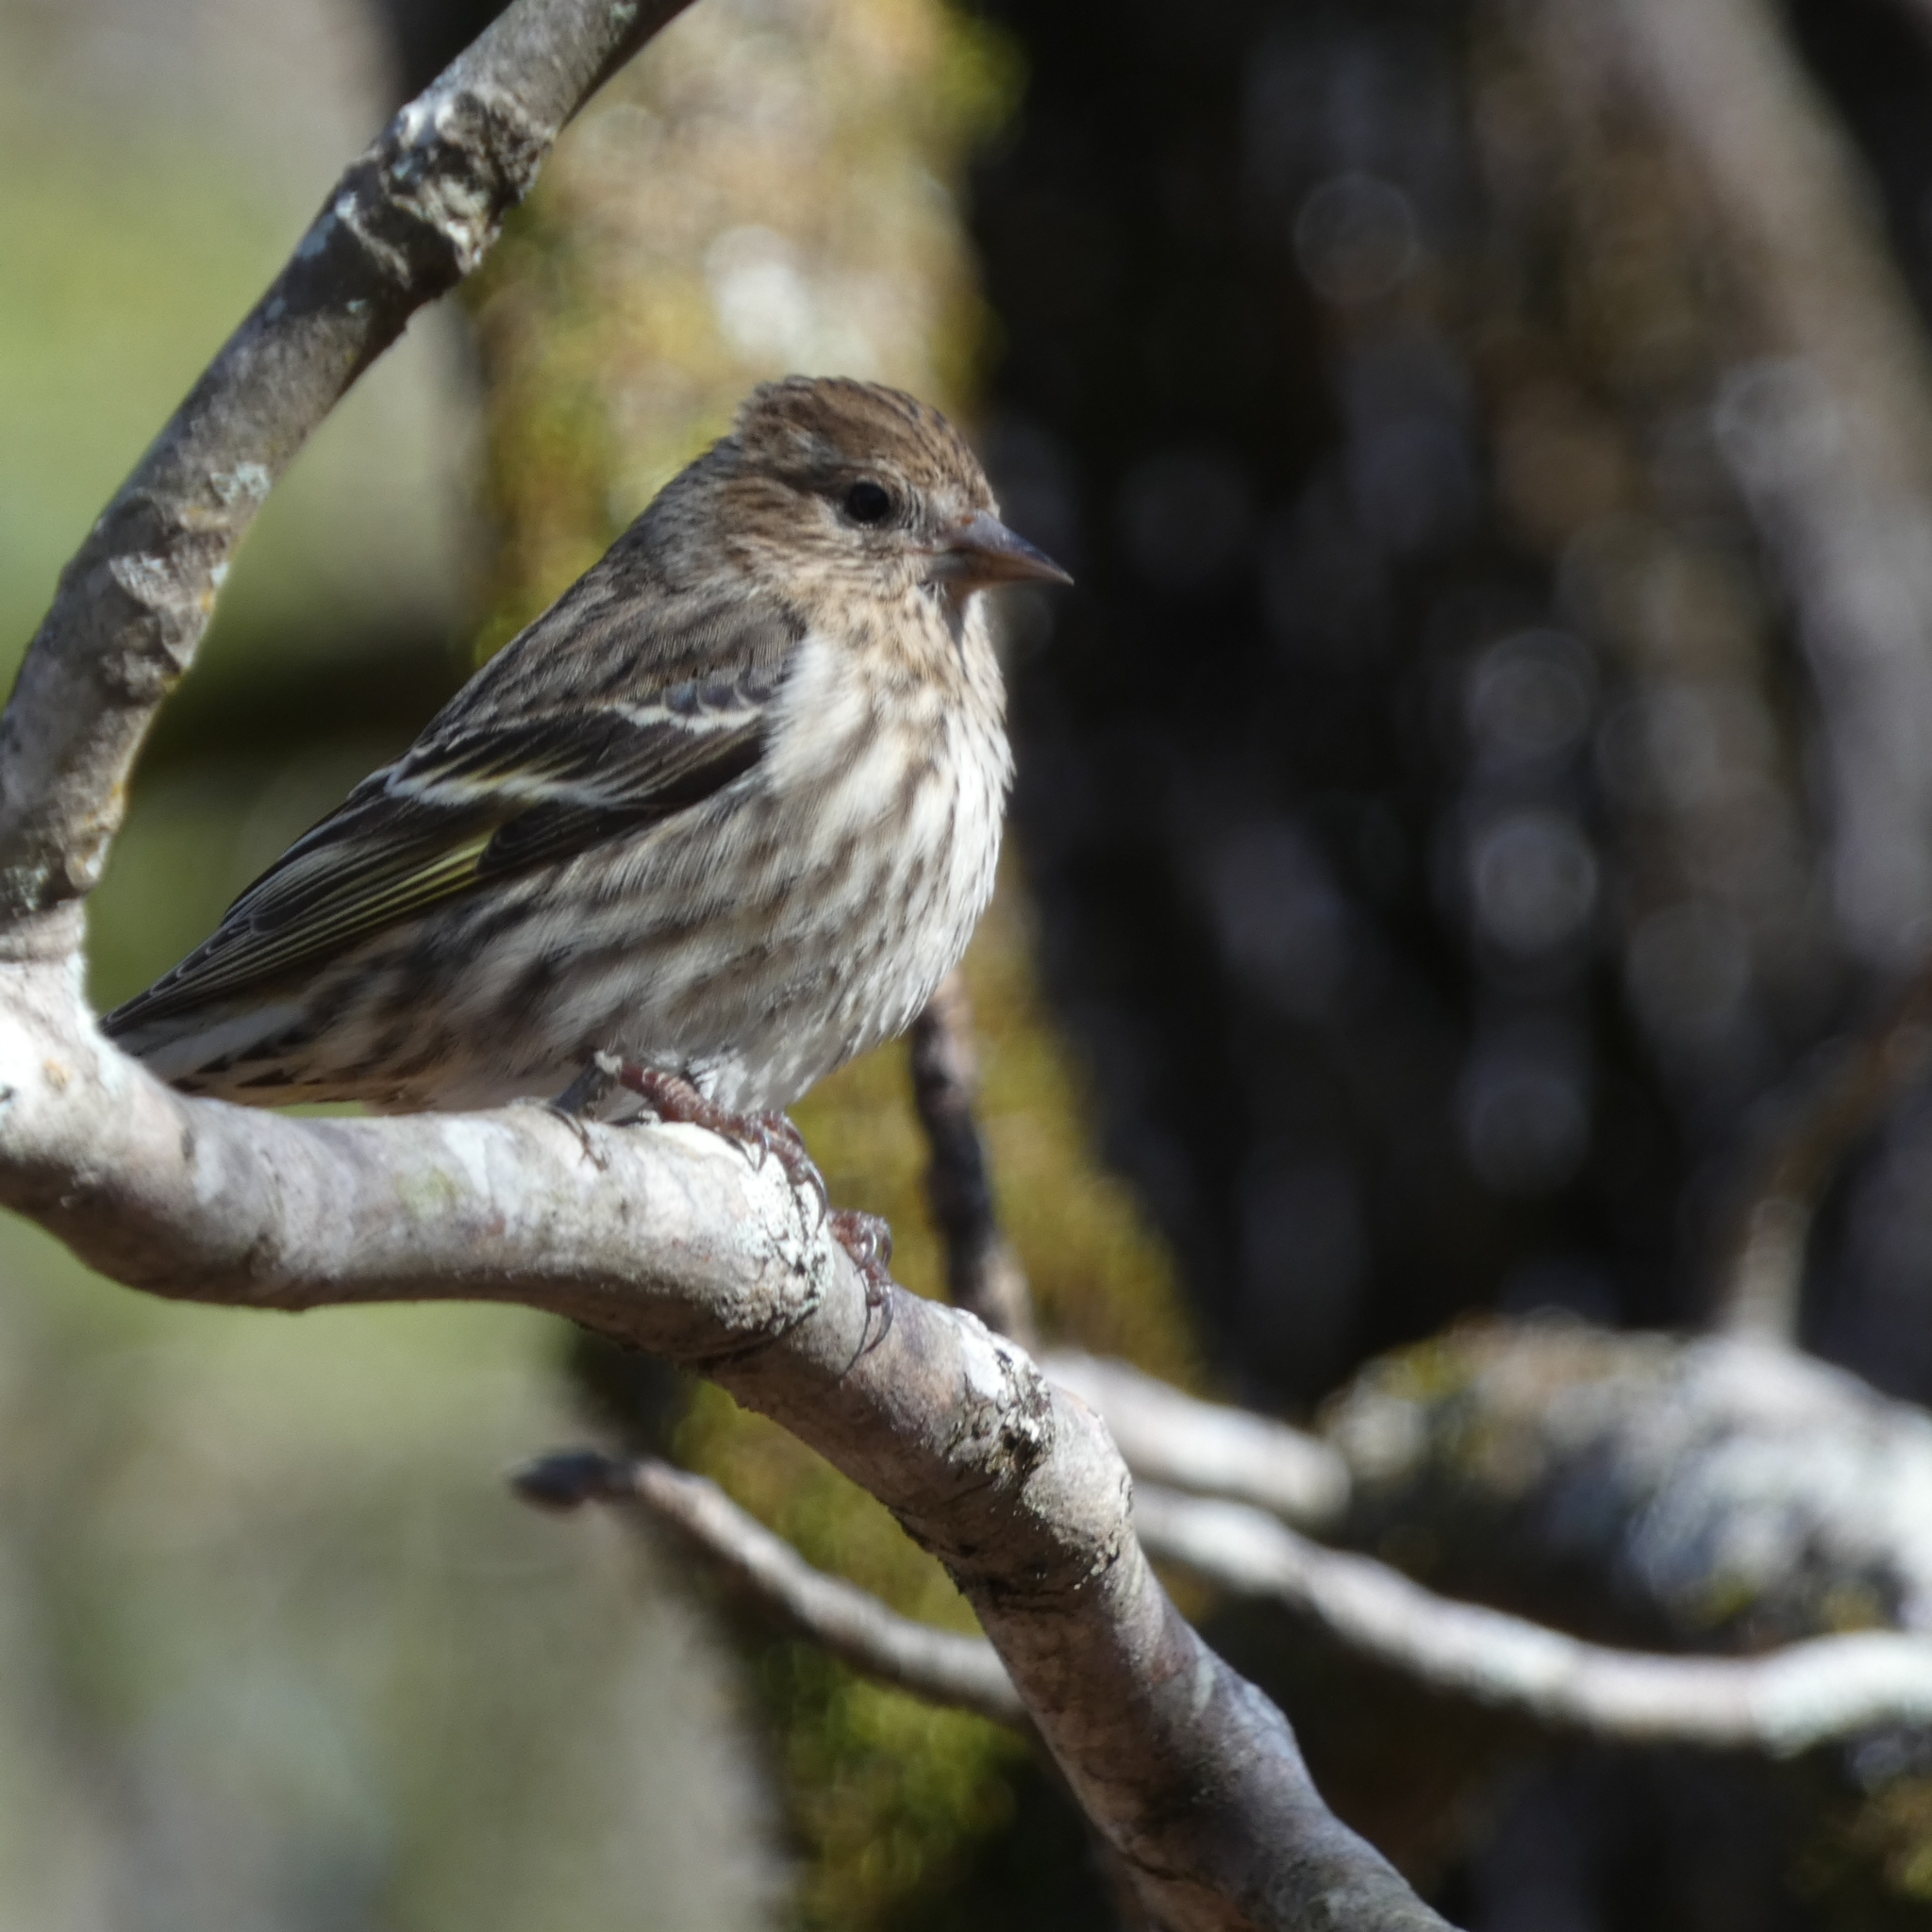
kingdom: Animalia
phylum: Chordata
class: Aves
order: Passeriformes
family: Fringillidae
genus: Spinus
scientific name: Spinus pinus
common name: Pine siskin
